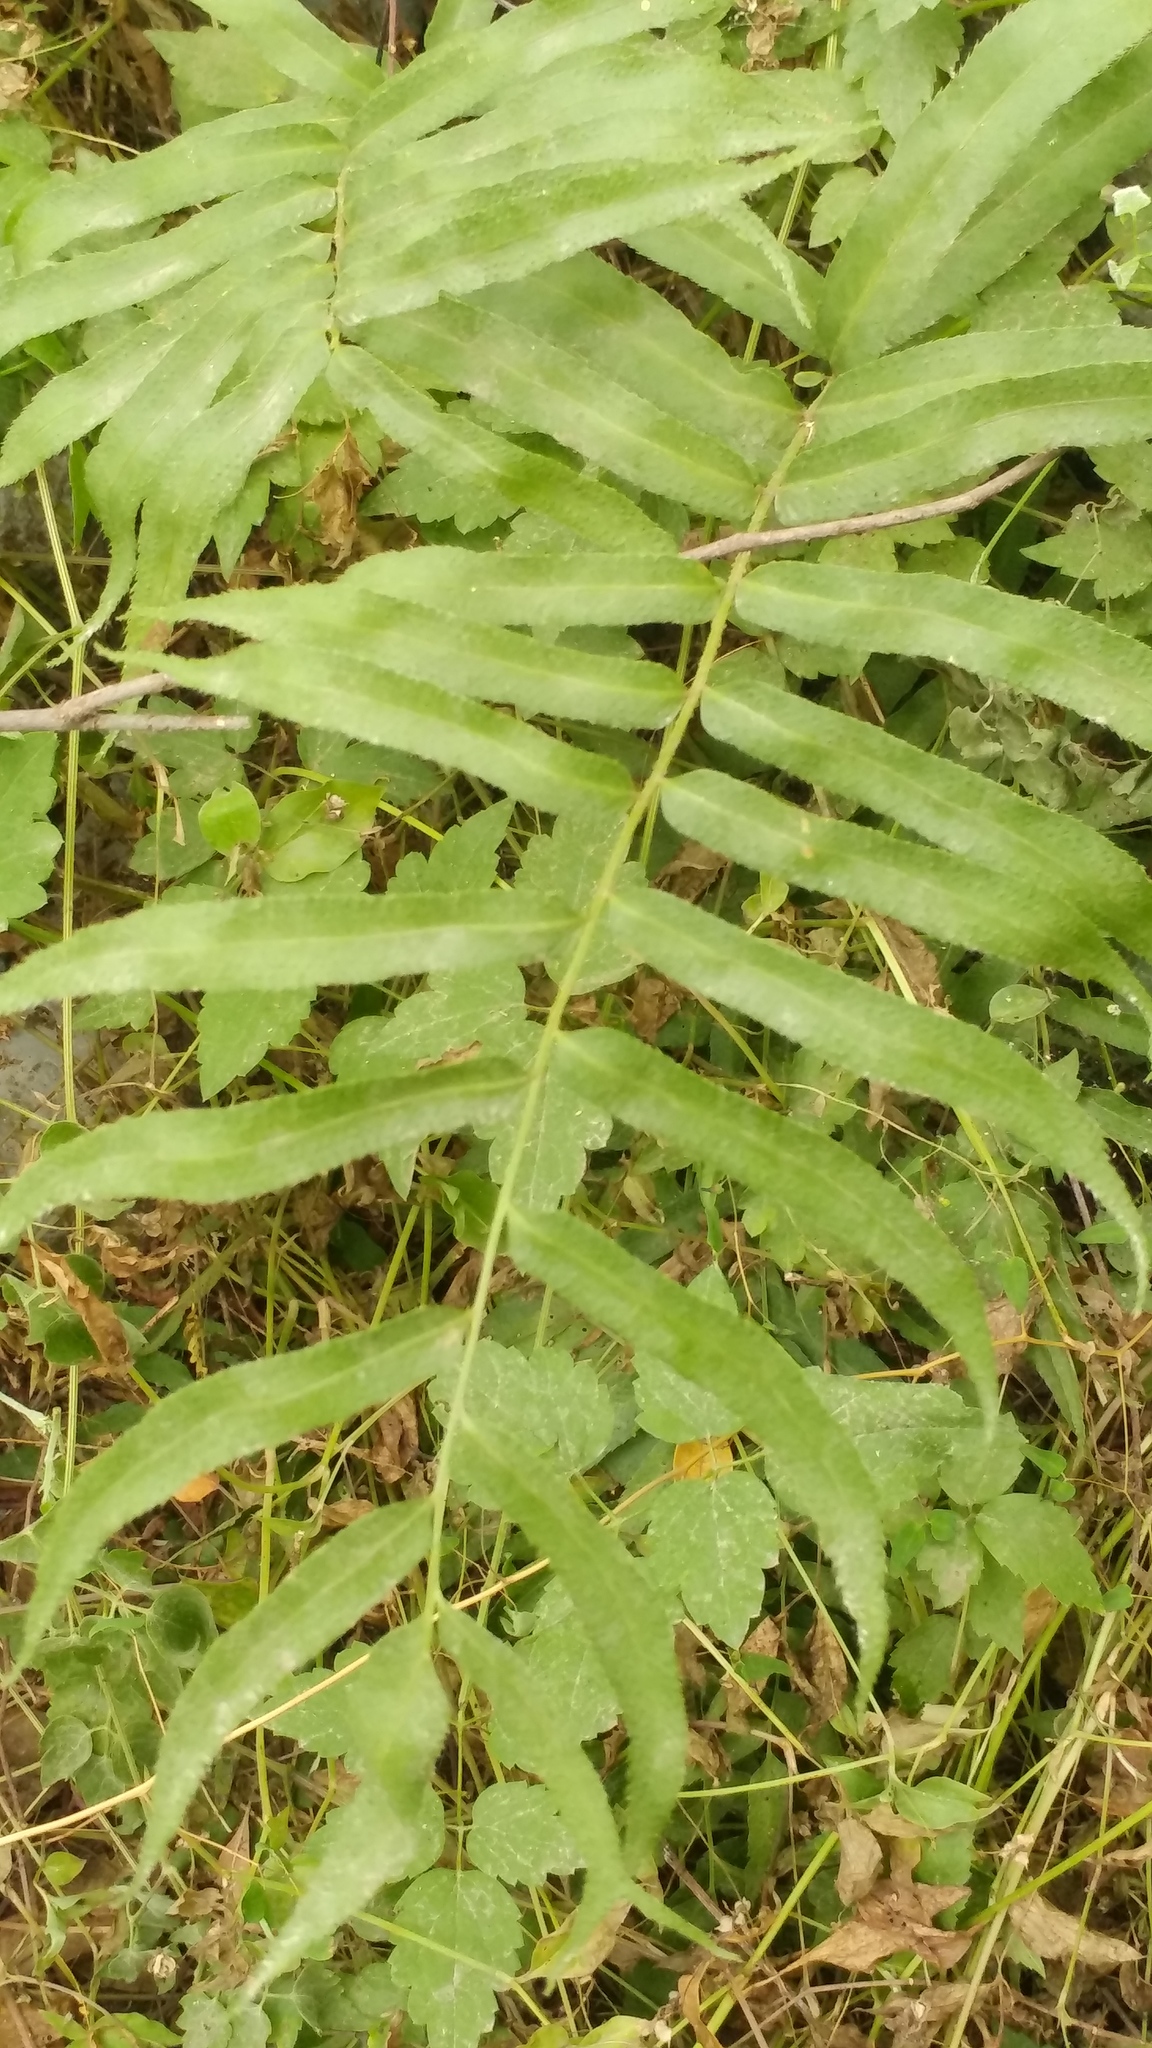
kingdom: Plantae
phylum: Tracheophyta
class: Polypodiopsida
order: Polypodiales
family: Dryopteridaceae
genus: Phanerophlebia
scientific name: Phanerophlebia umbonata
